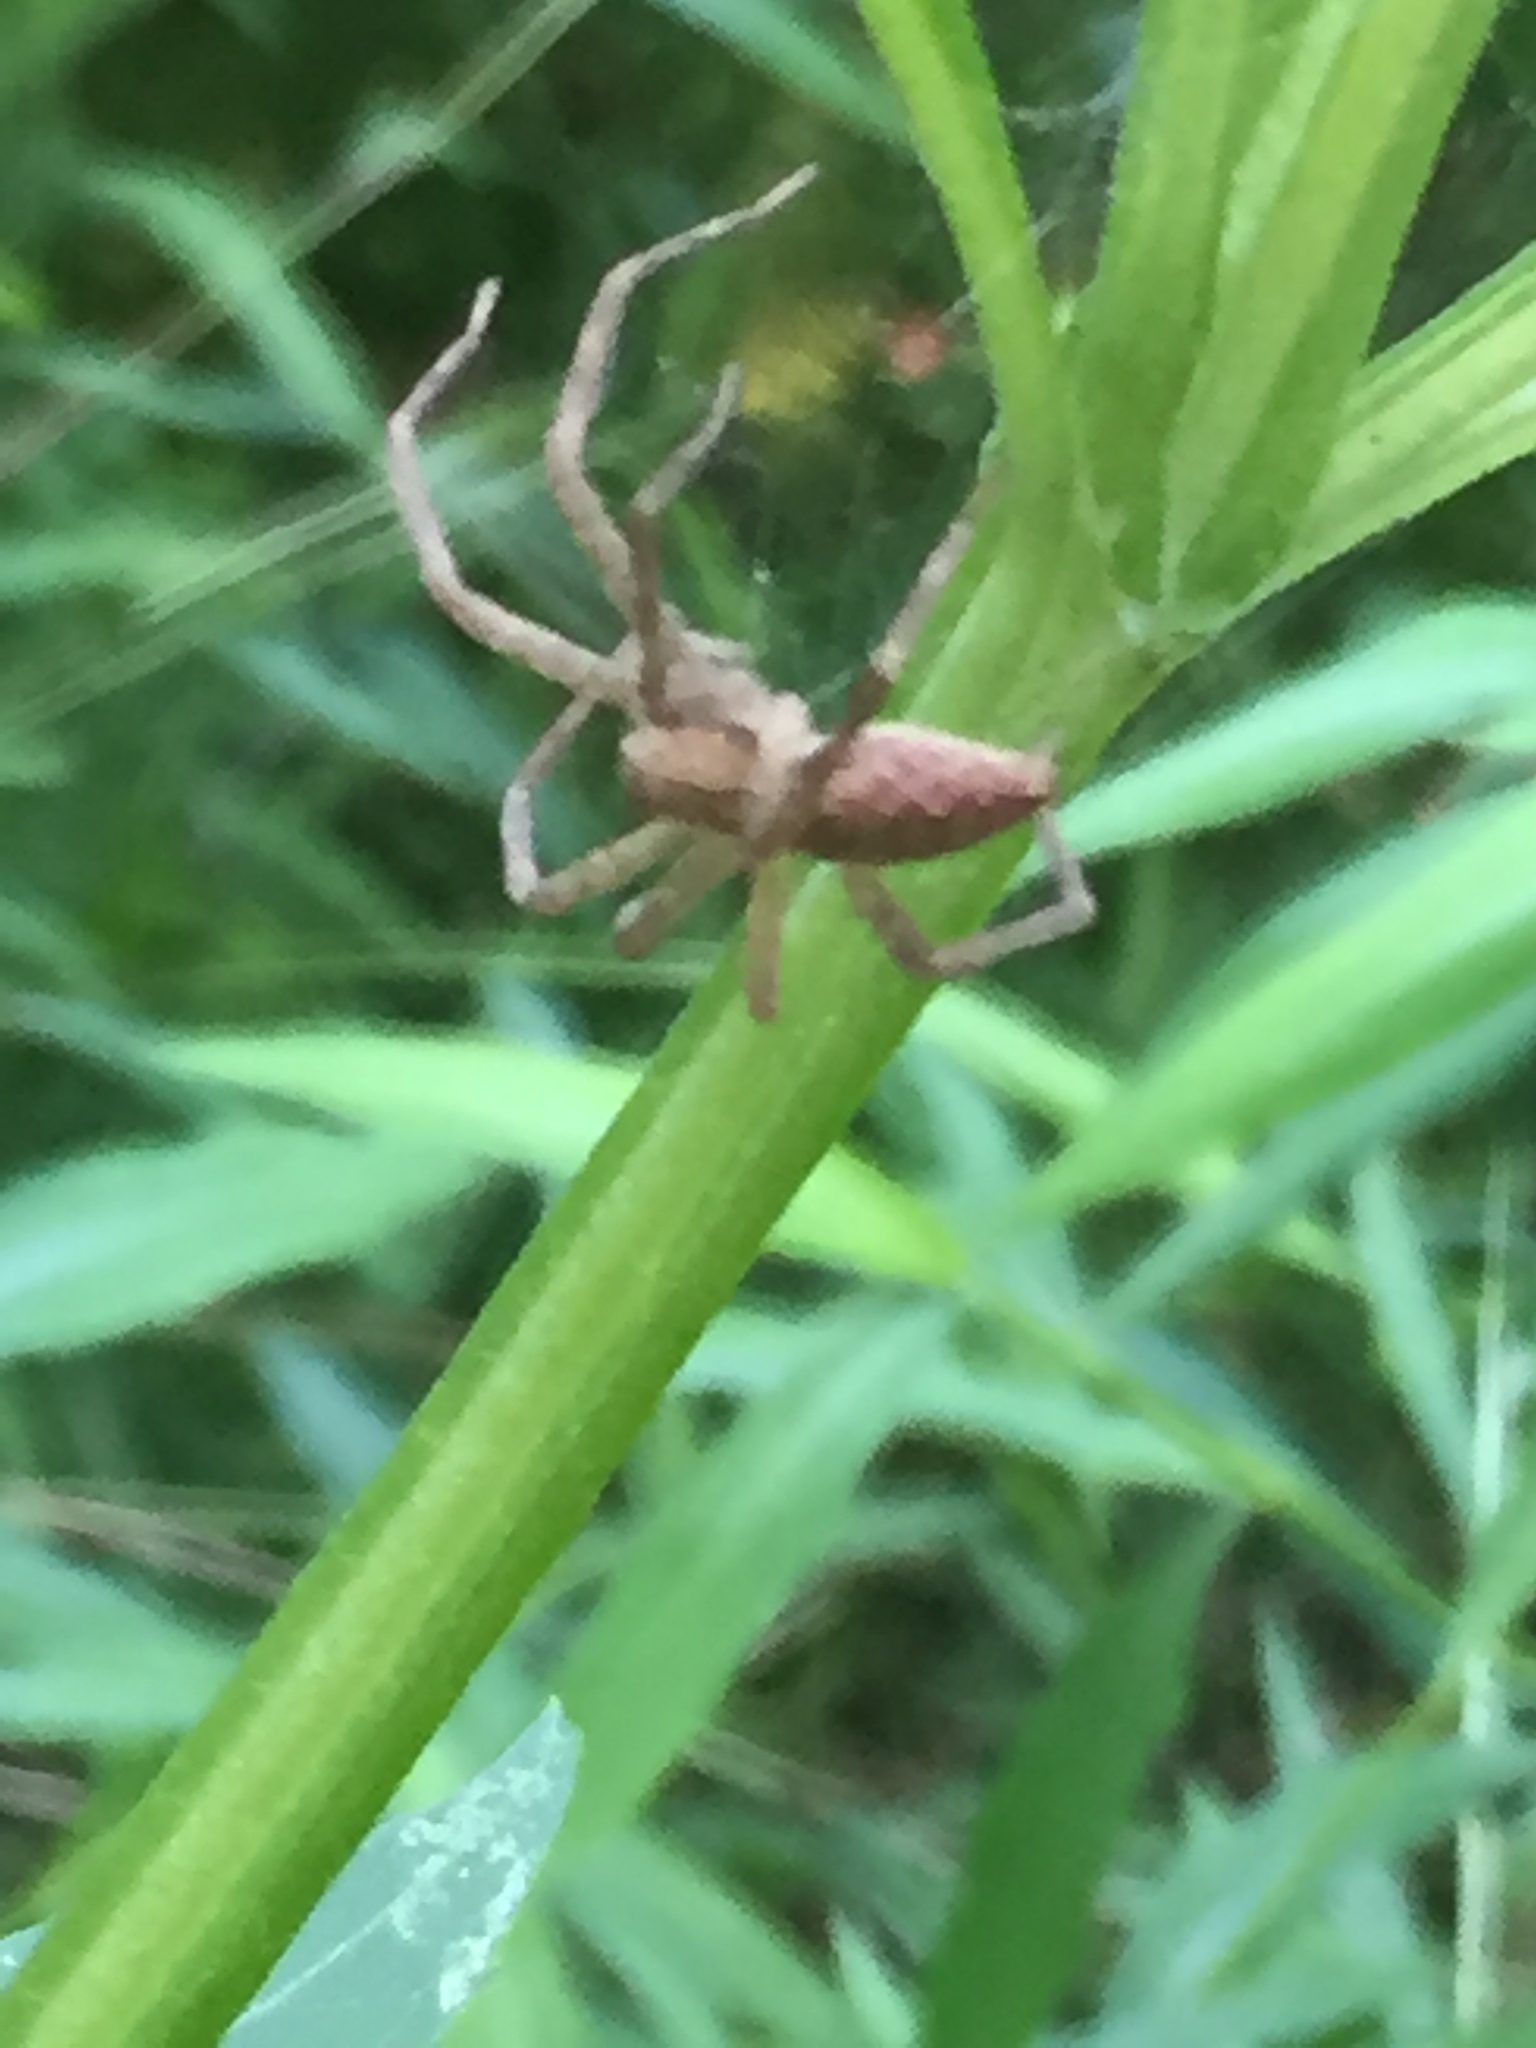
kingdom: Animalia
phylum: Arthropoda
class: Arachnida
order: Araneae
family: Pisauridae
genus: Pisaurina
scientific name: Pisaurina mira
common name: American nursery web spider
